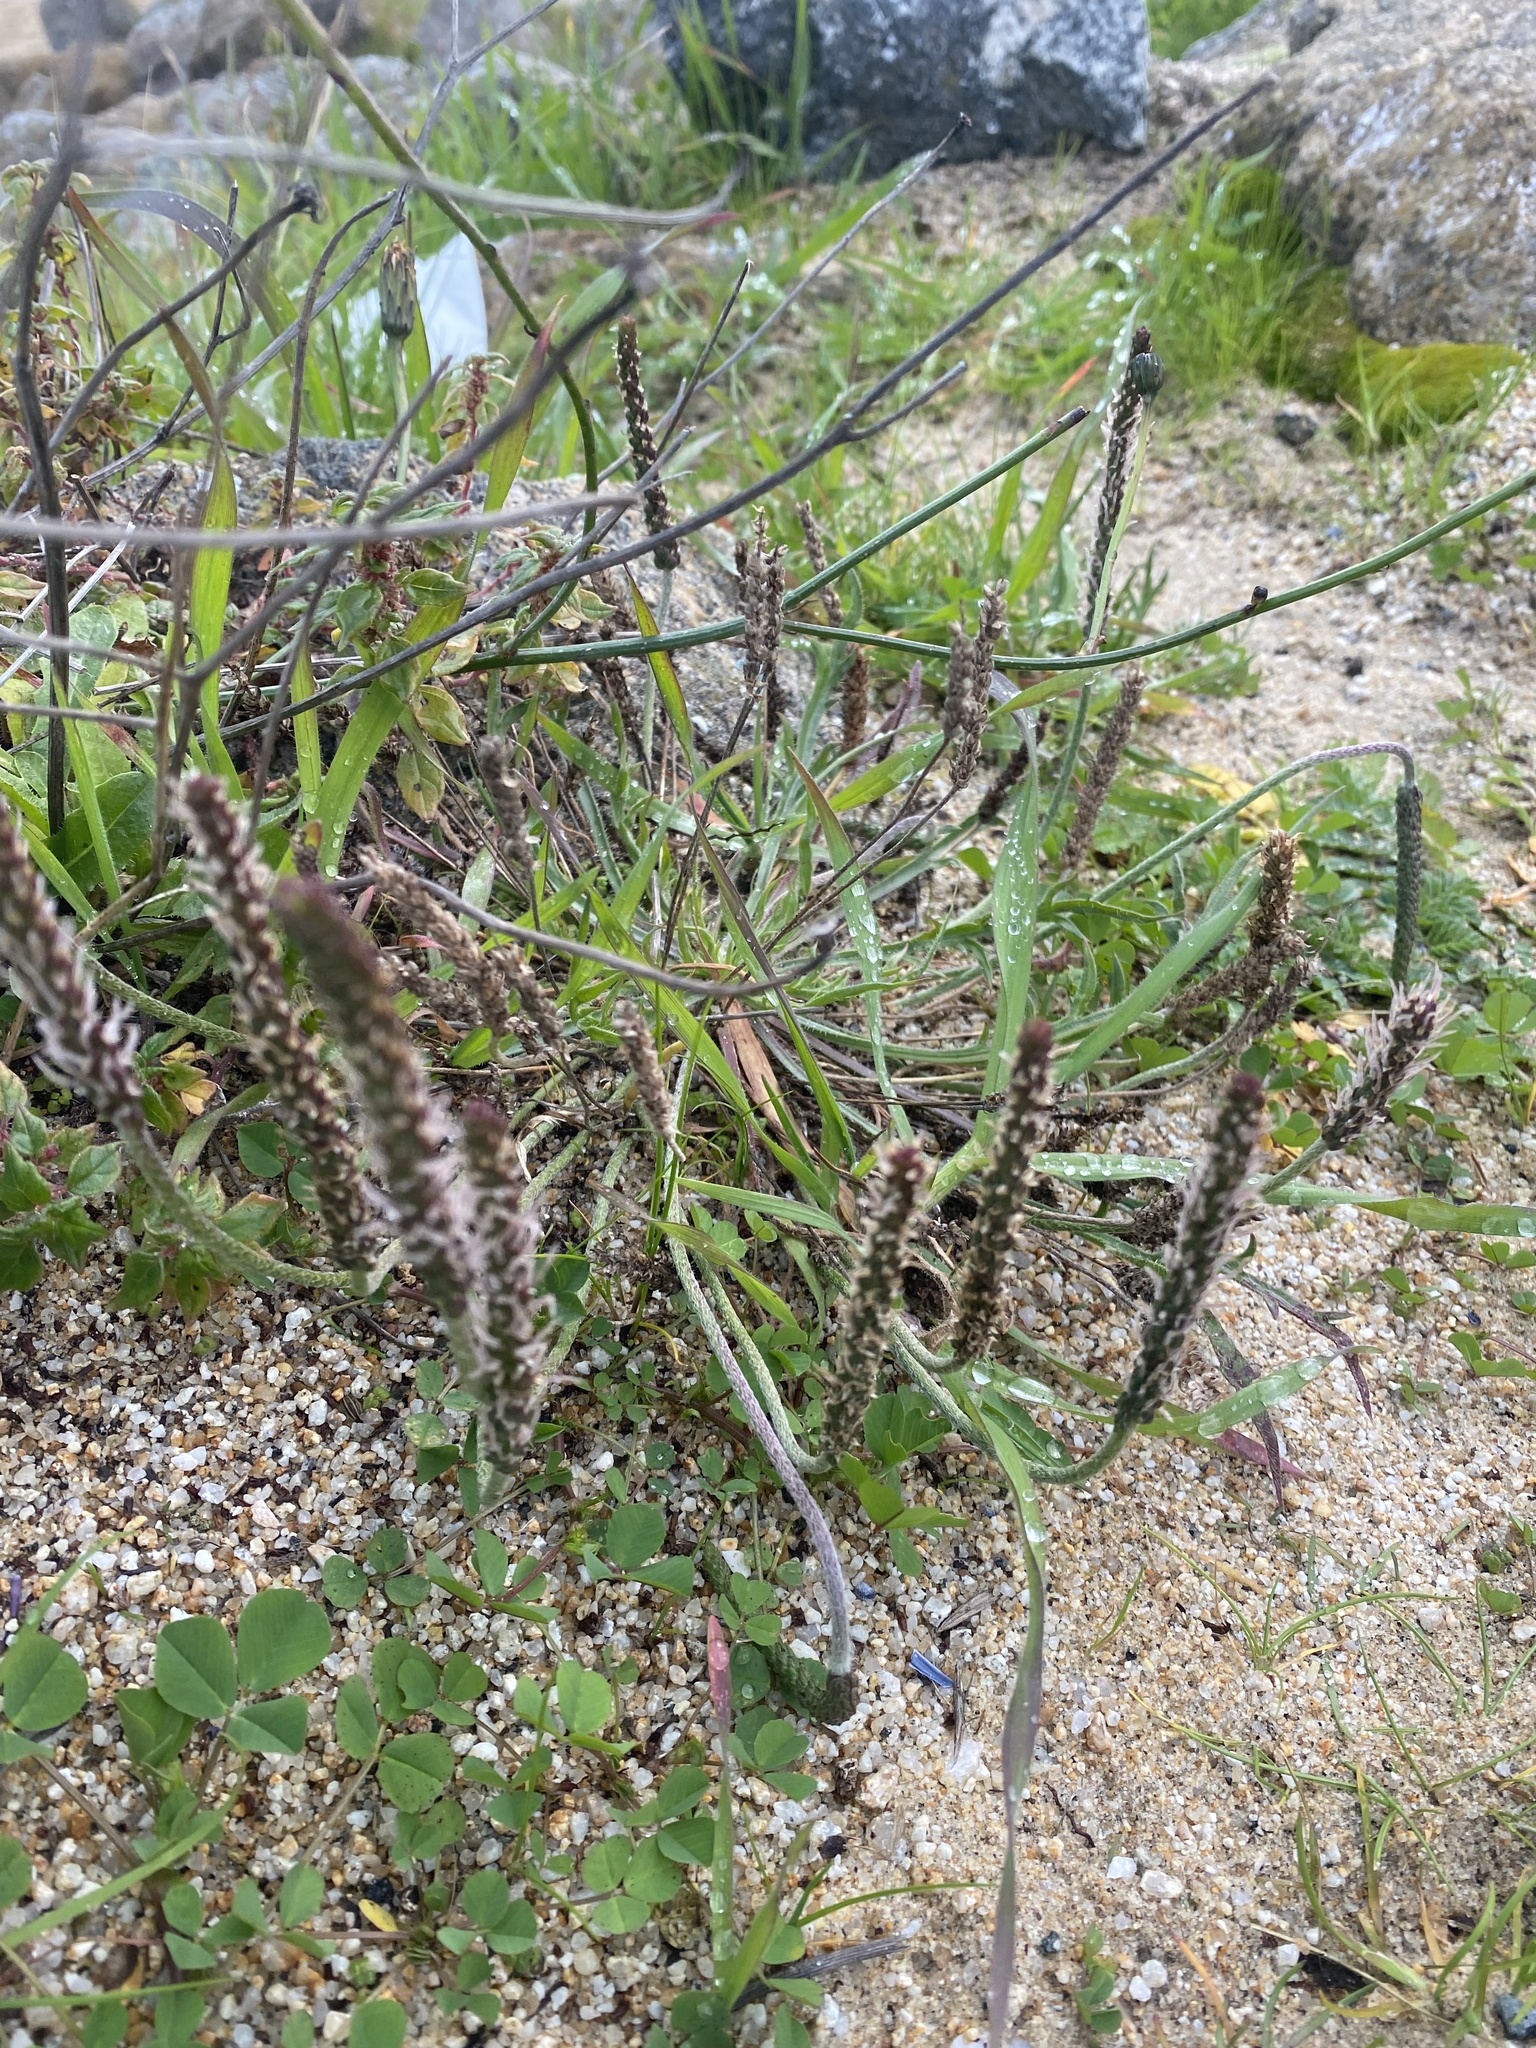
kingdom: Plantae
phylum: Tracheophyta
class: Magnoliopsida
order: Lamiales
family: Plantaginaceae
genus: Plantago
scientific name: Plantago coronopus
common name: Buck's-horn plantain
